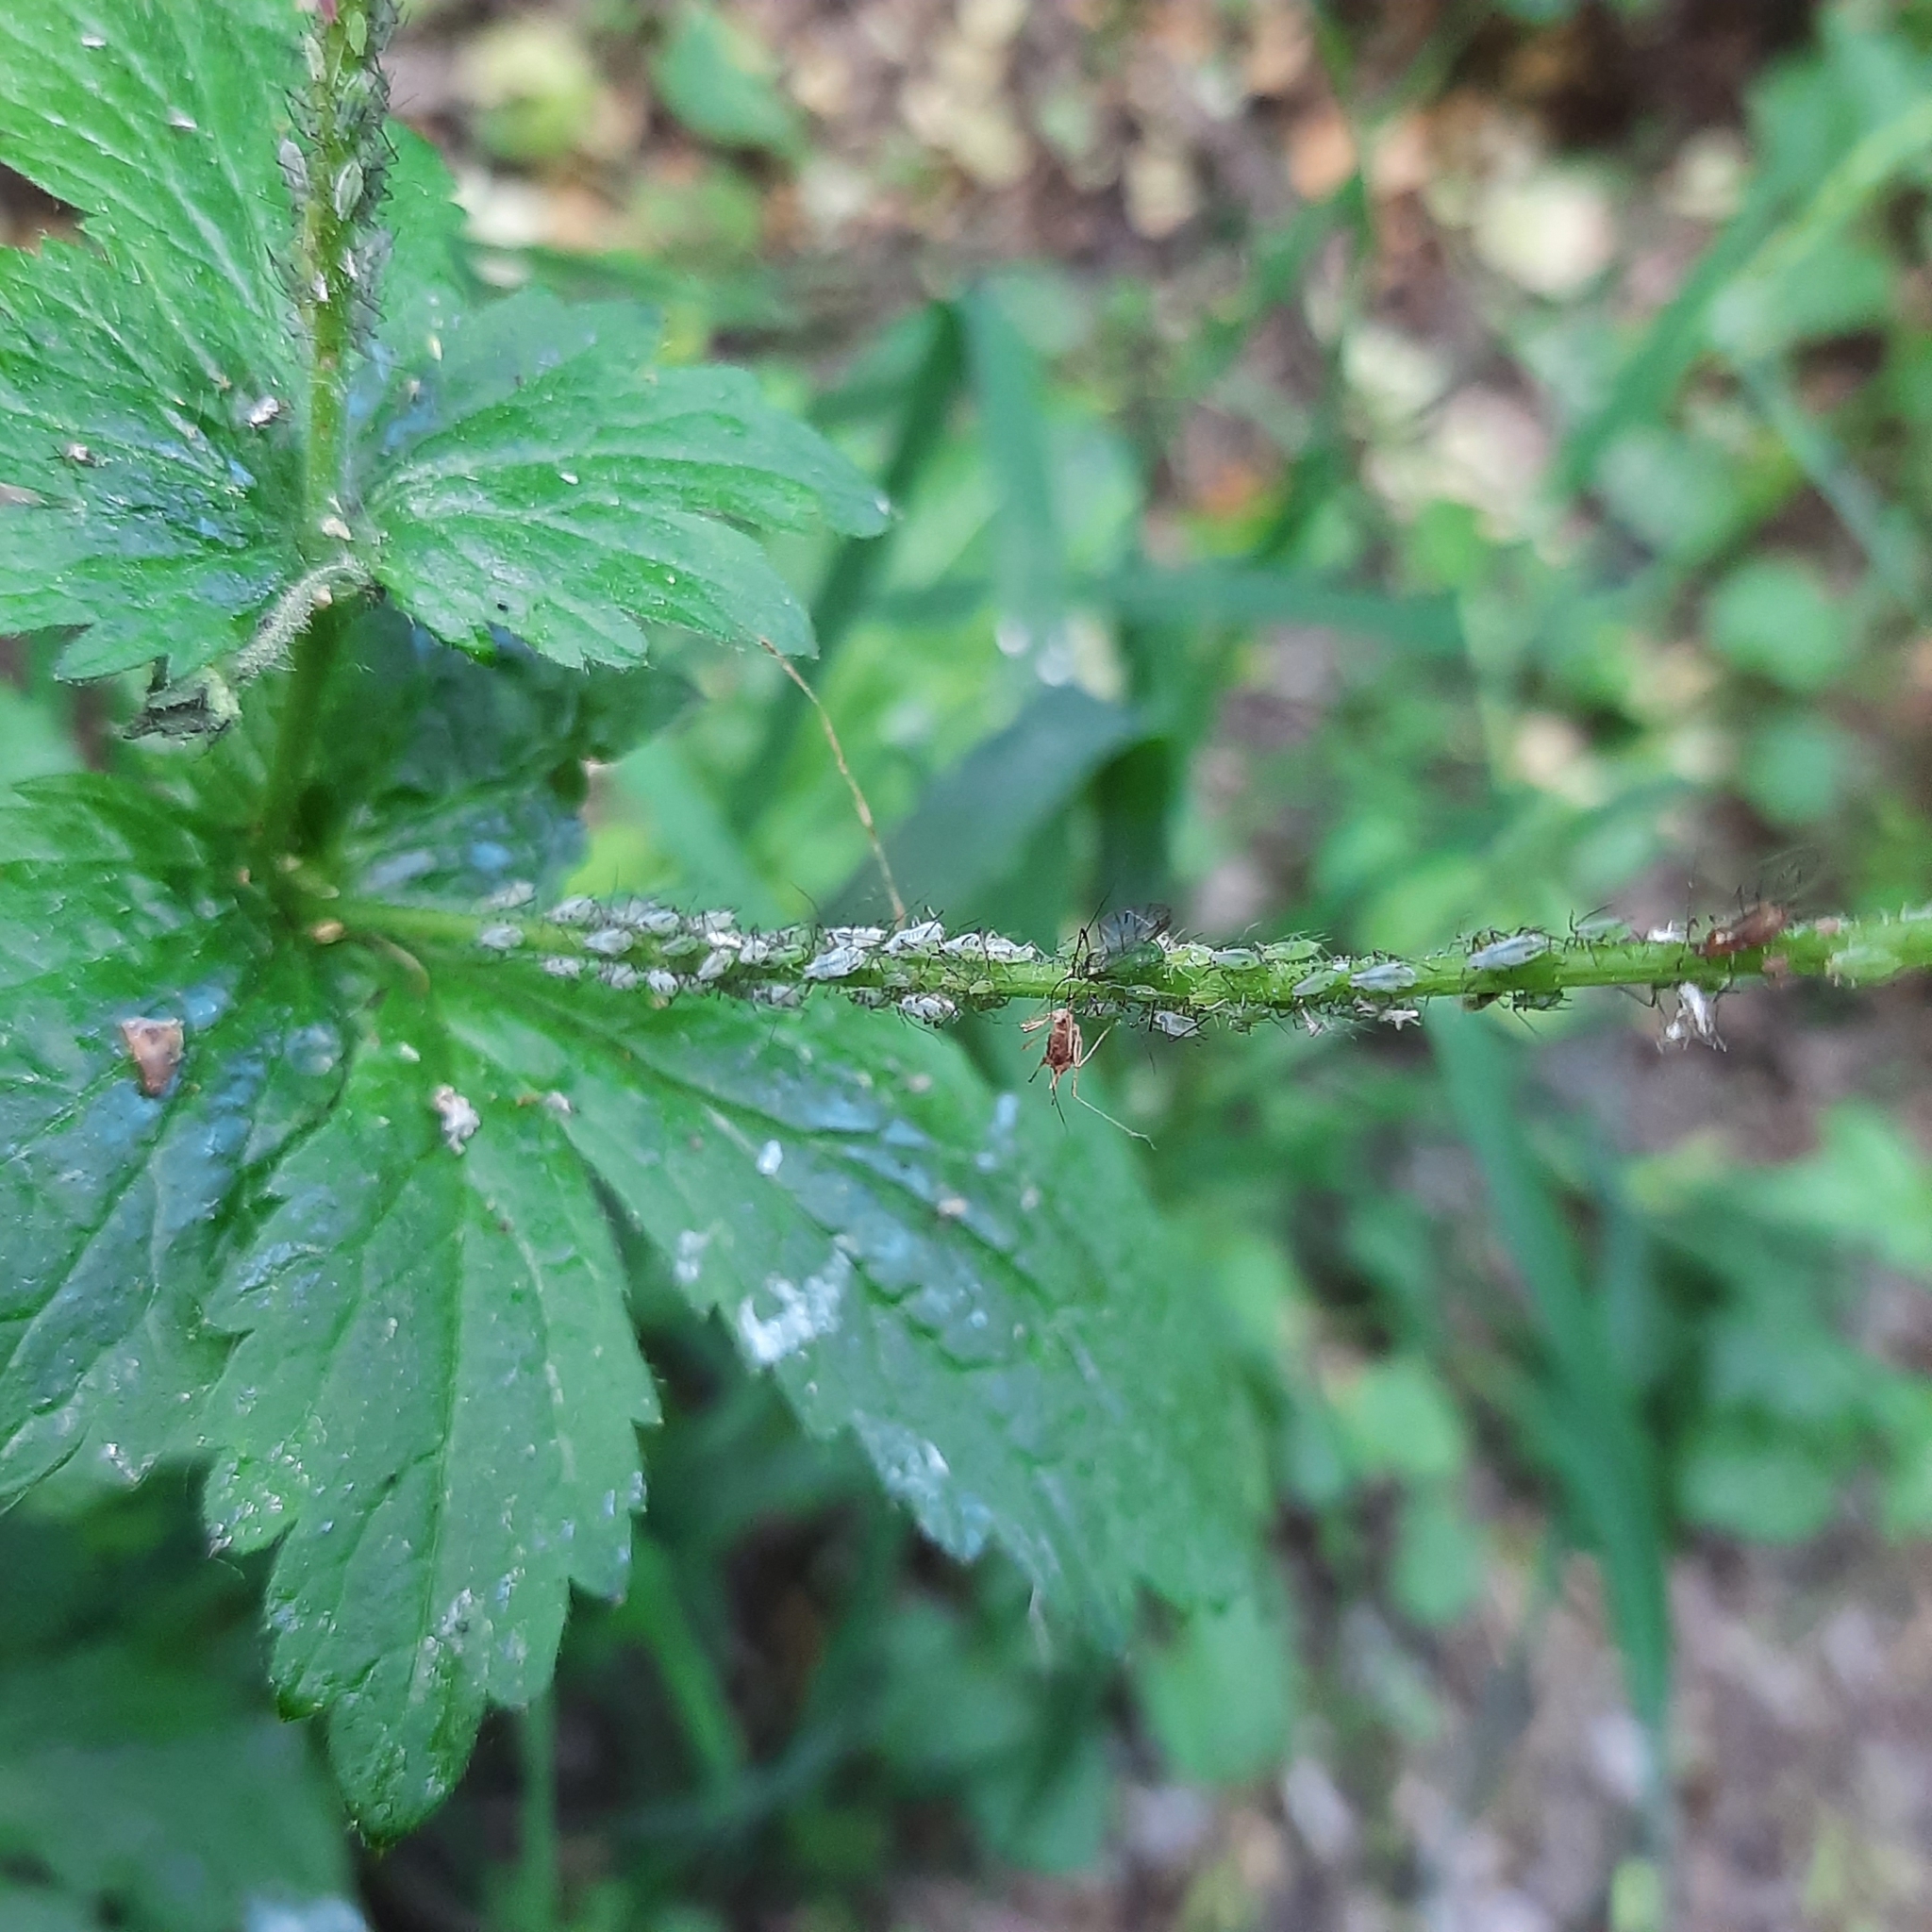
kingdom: Plantae
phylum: Tracheophyta
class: Magnoliopsida
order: Rosales
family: Rosaceae
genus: Geum
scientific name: Geum urbanum
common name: Wood avens
